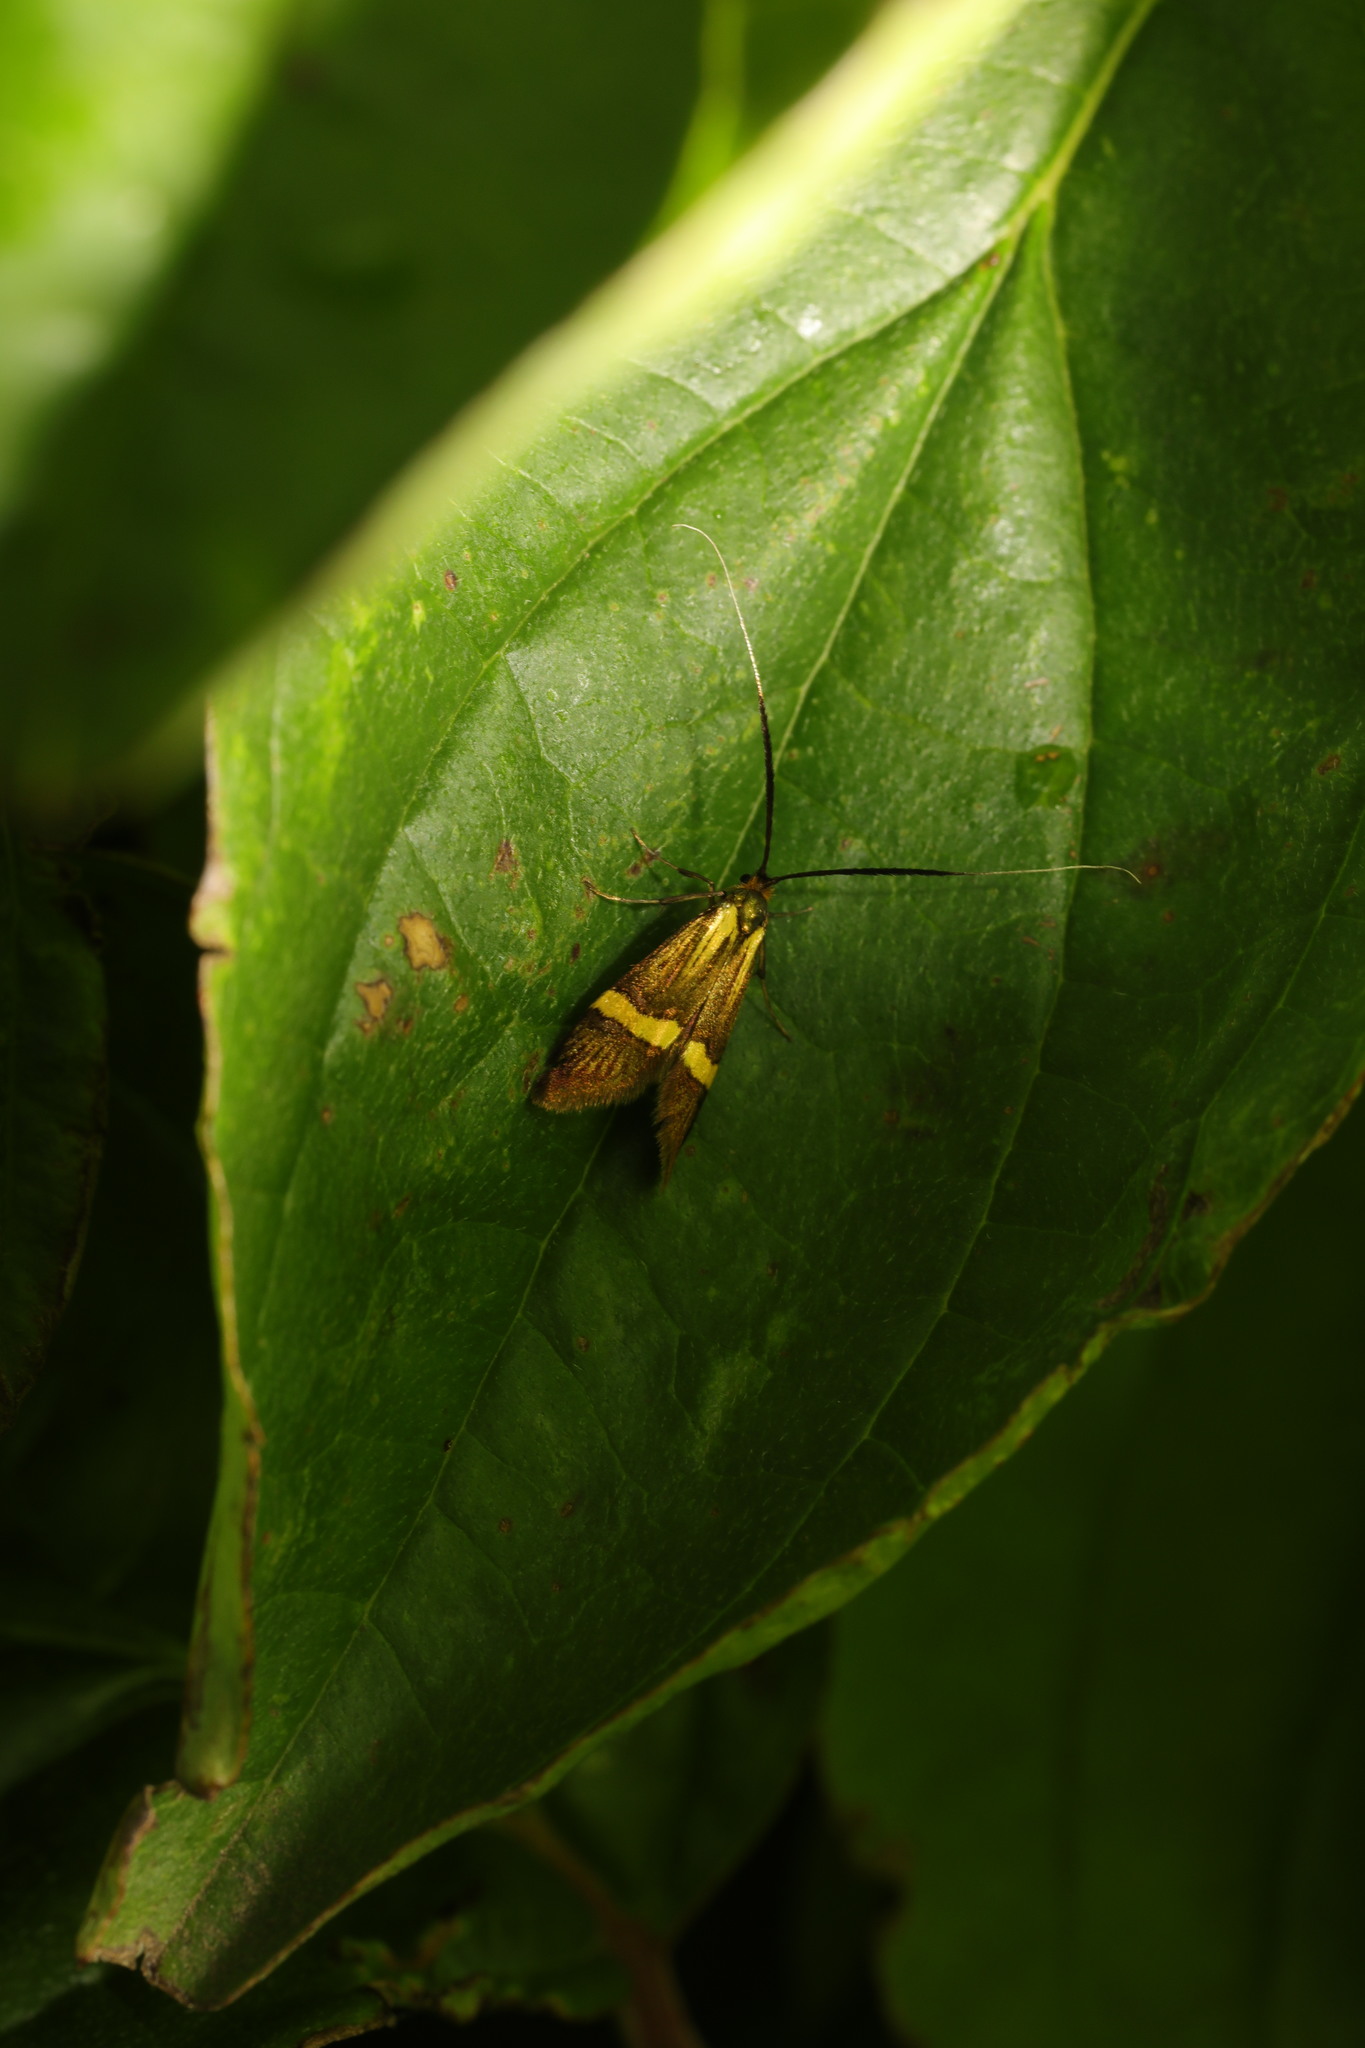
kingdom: Animalia
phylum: Arthropoda
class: Insecta
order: Lepidoptera
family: Adelidae
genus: Nemophora
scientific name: Nemophora degeerella
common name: Yellow-barred long-horn
